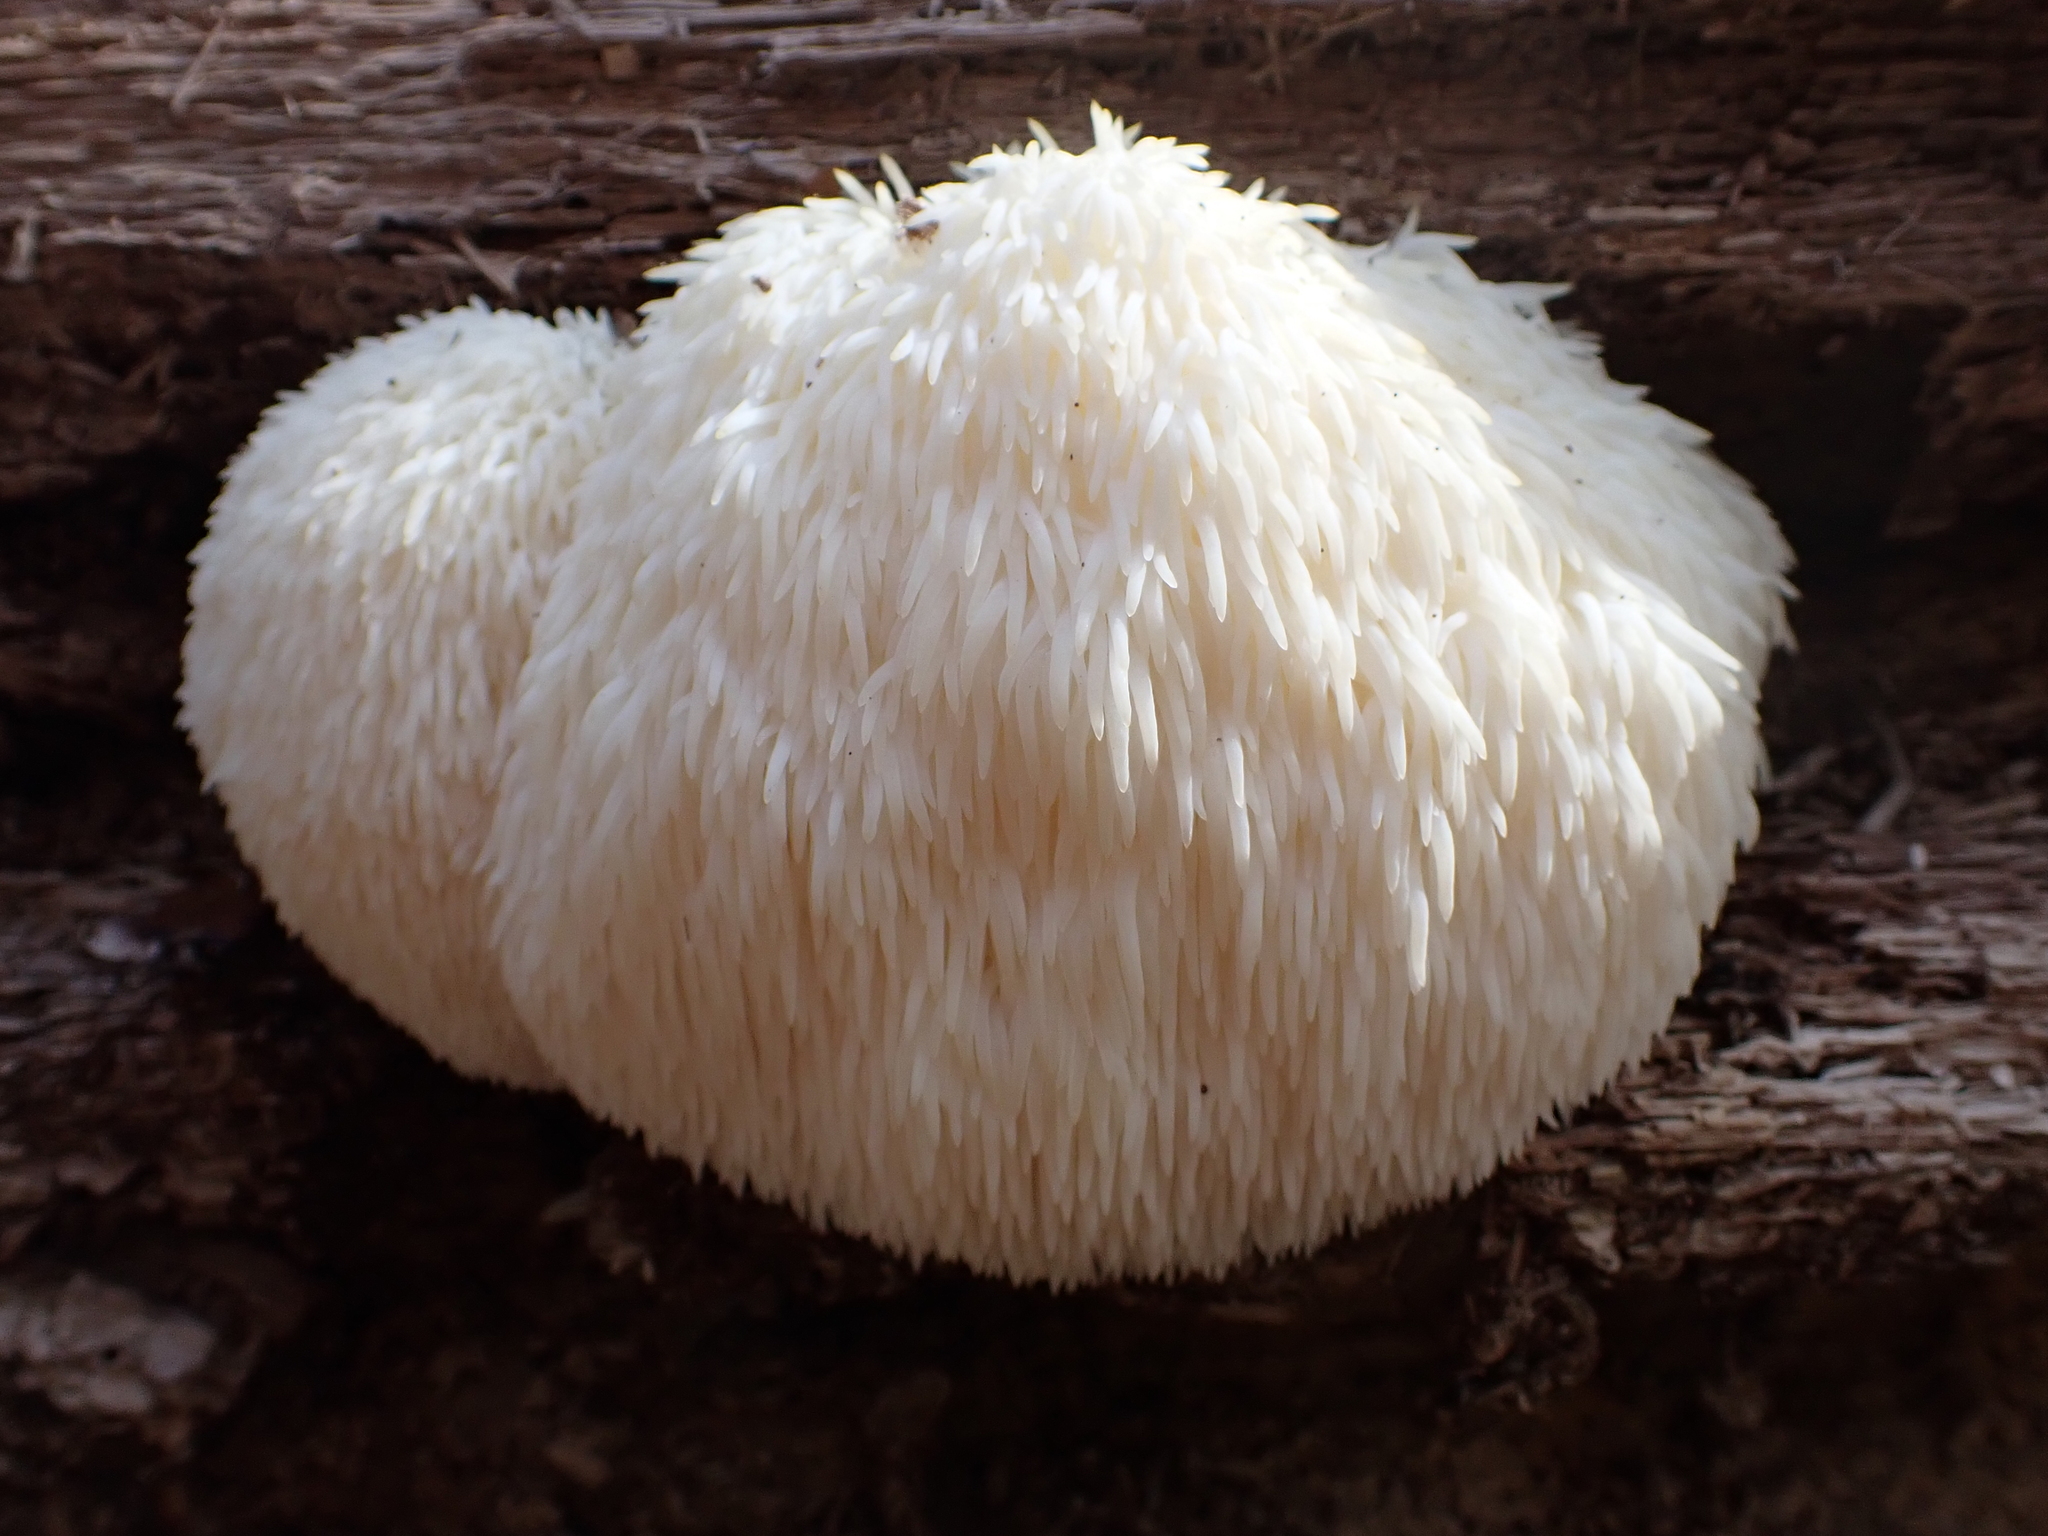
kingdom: Fungi
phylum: Basidiomycota
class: Agaricomycetes
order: Russulales
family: Hericiaceae
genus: Hericium
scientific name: Hericium erinaceus
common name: Bearded tooth
